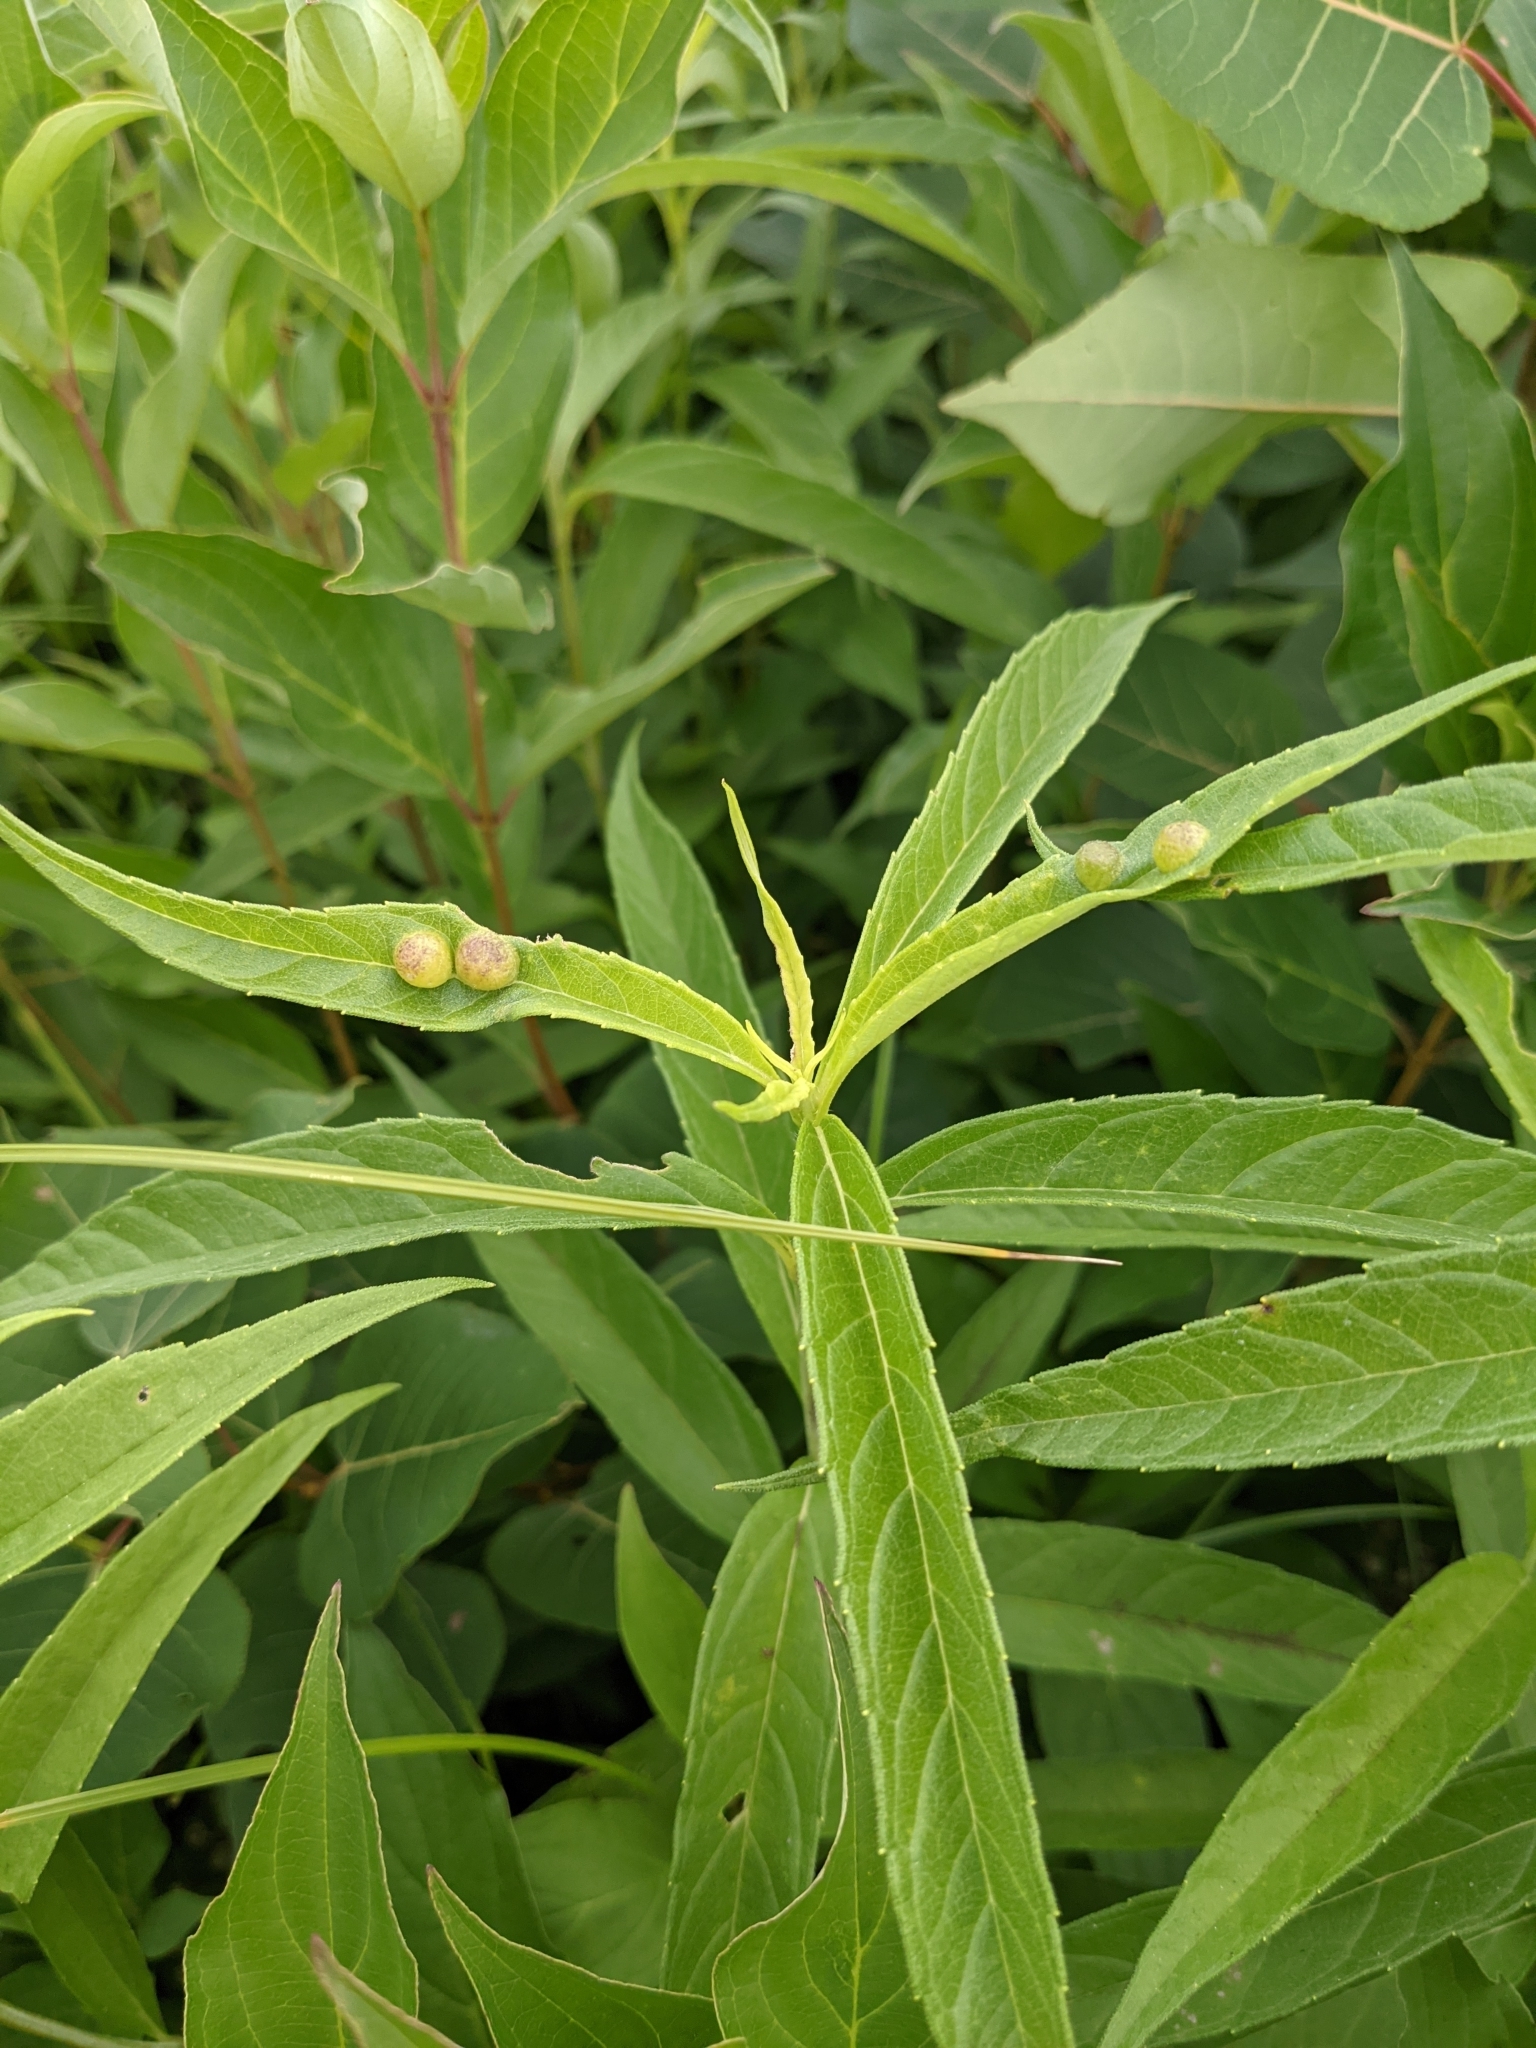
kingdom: Animalia
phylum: Arthropoda
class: Insecta
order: Diptera
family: Cecidomyiidae
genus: Pilodiplosis
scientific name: Pilodiplosis helianthibulla
